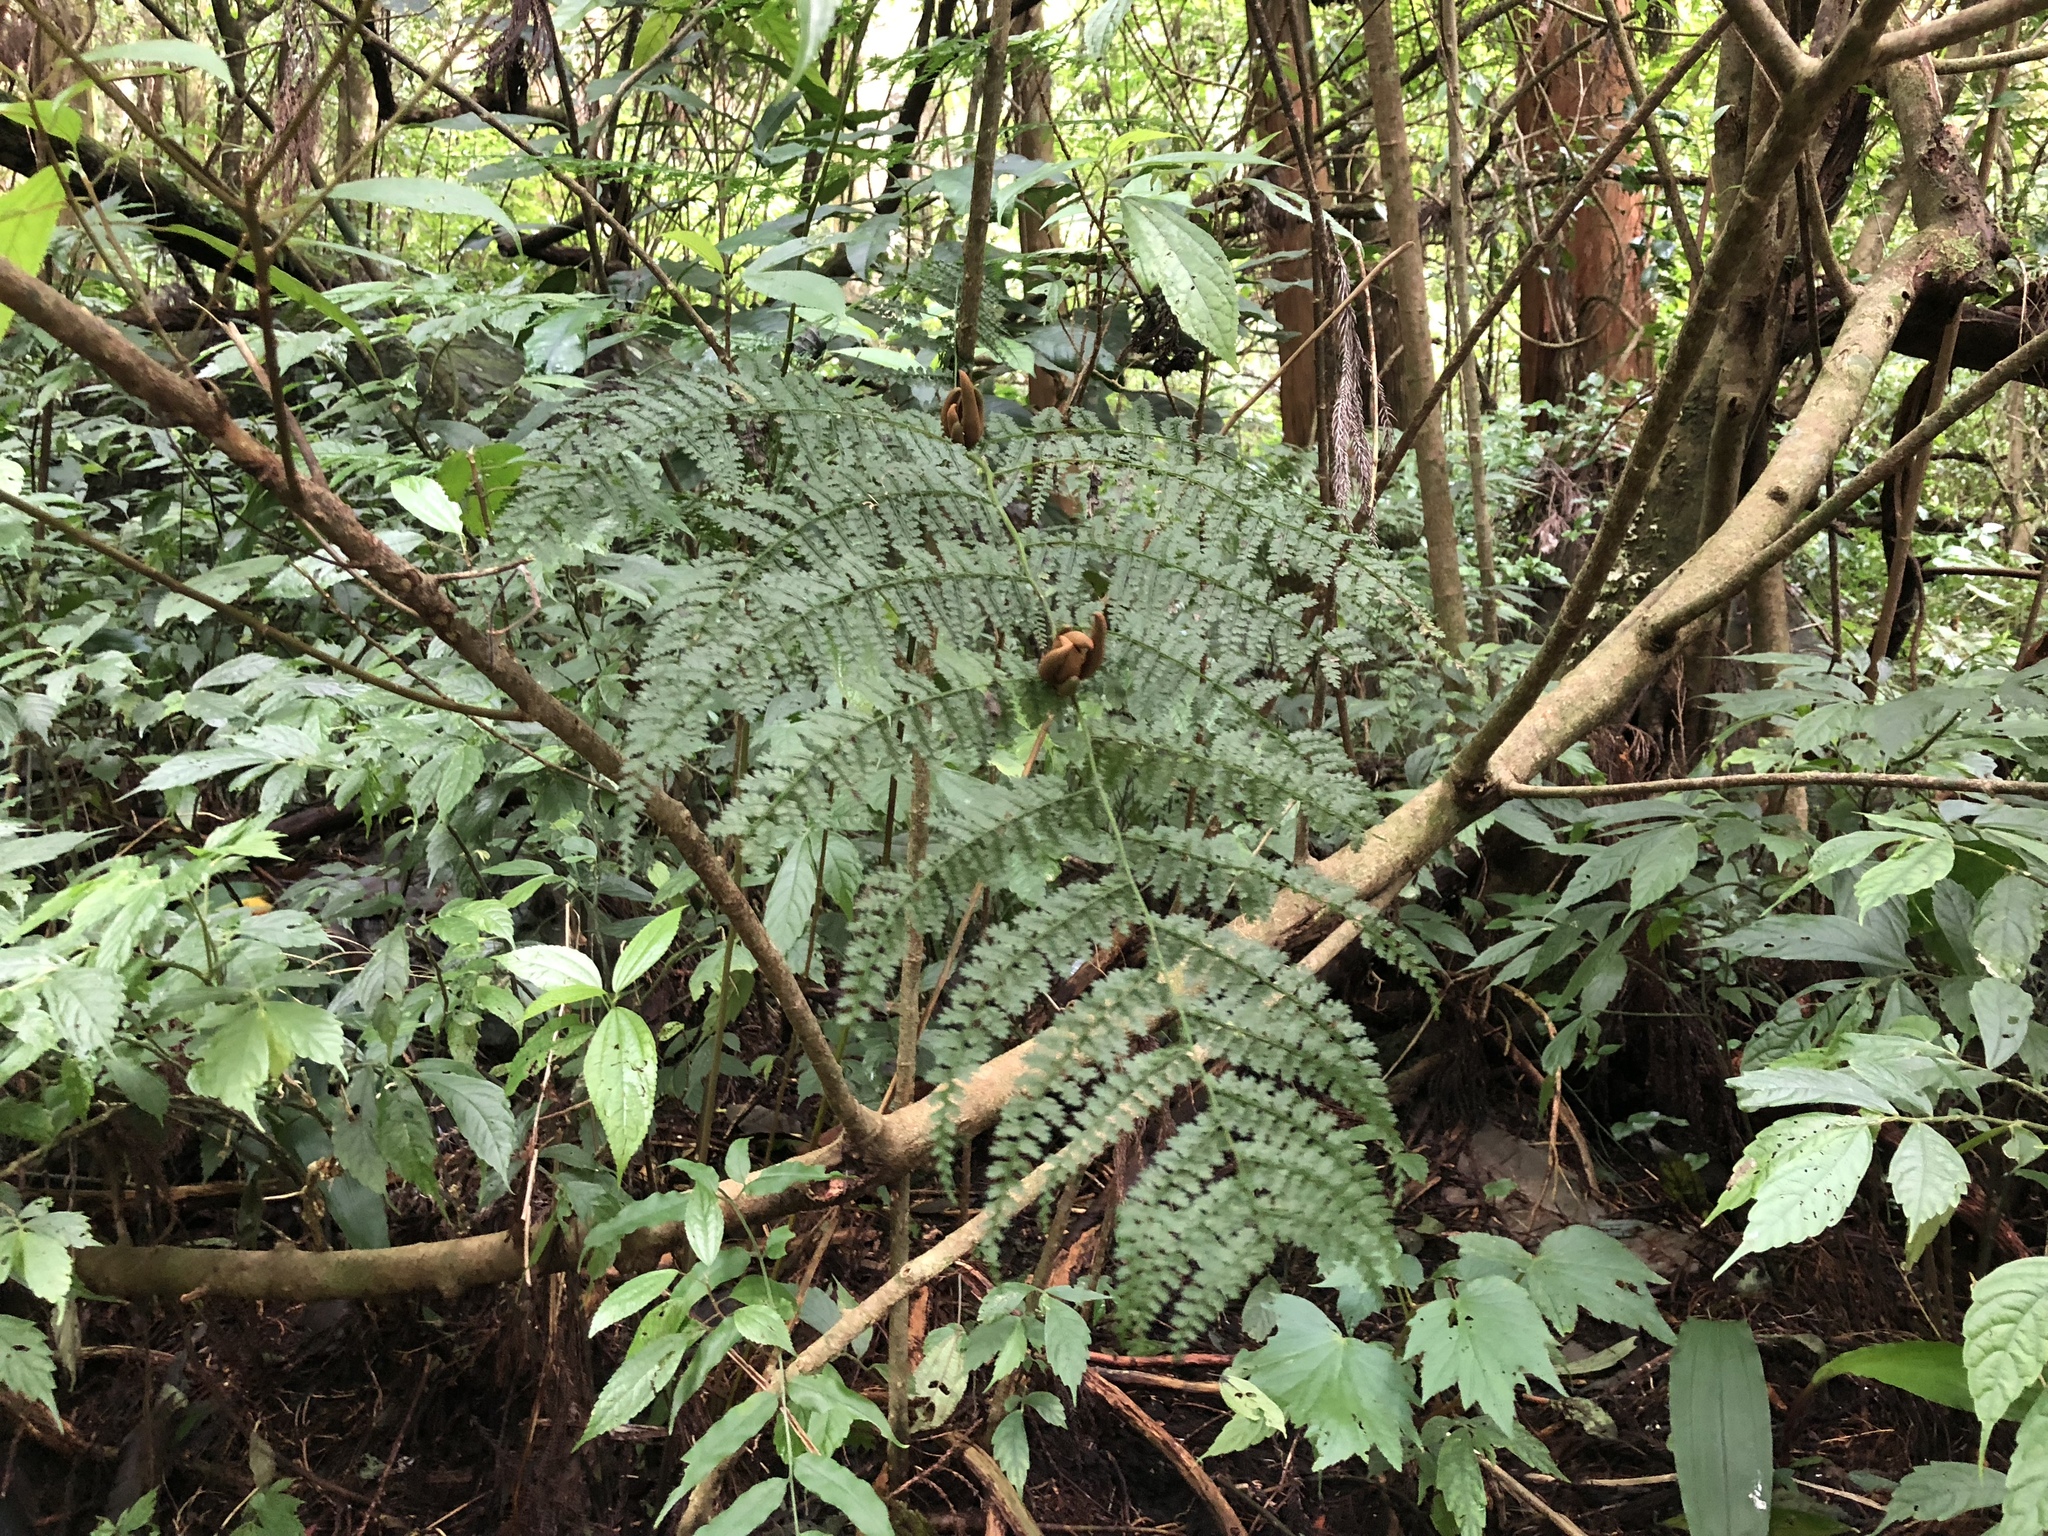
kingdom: Plantae
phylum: Tracheophyta
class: Polypodiopsida
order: Polypodiales
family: Dennstaedtiaceae
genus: Monachosorum
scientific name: Monachosorum henryi
